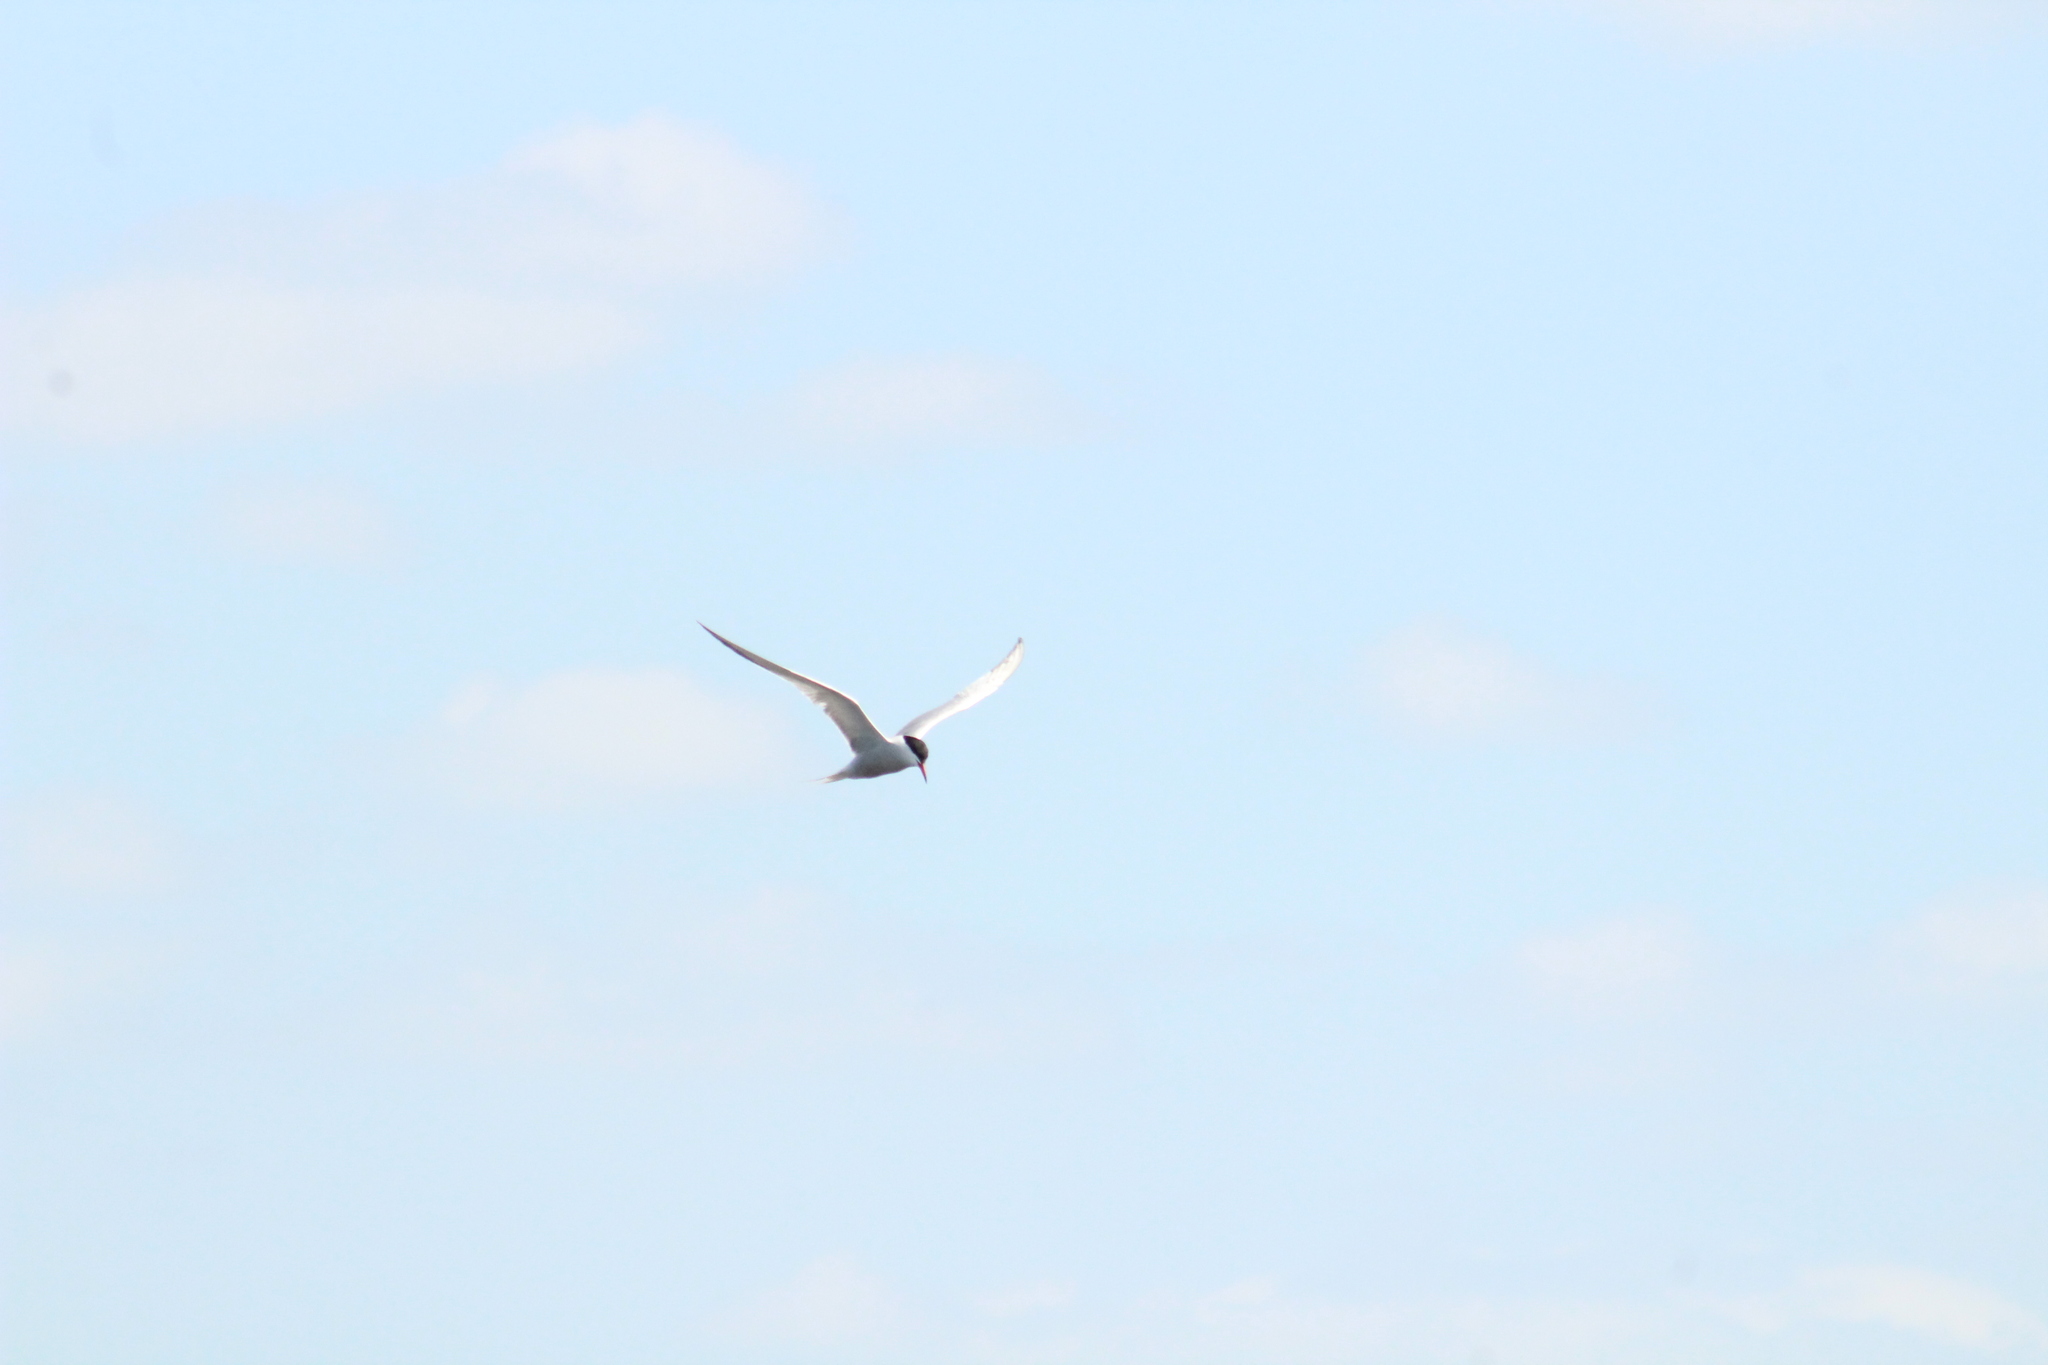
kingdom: Animalia
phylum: Chordata
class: Aves
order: Charadriiformes
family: Laridae
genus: Sterna
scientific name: Sterna hirundo
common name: Common tern
